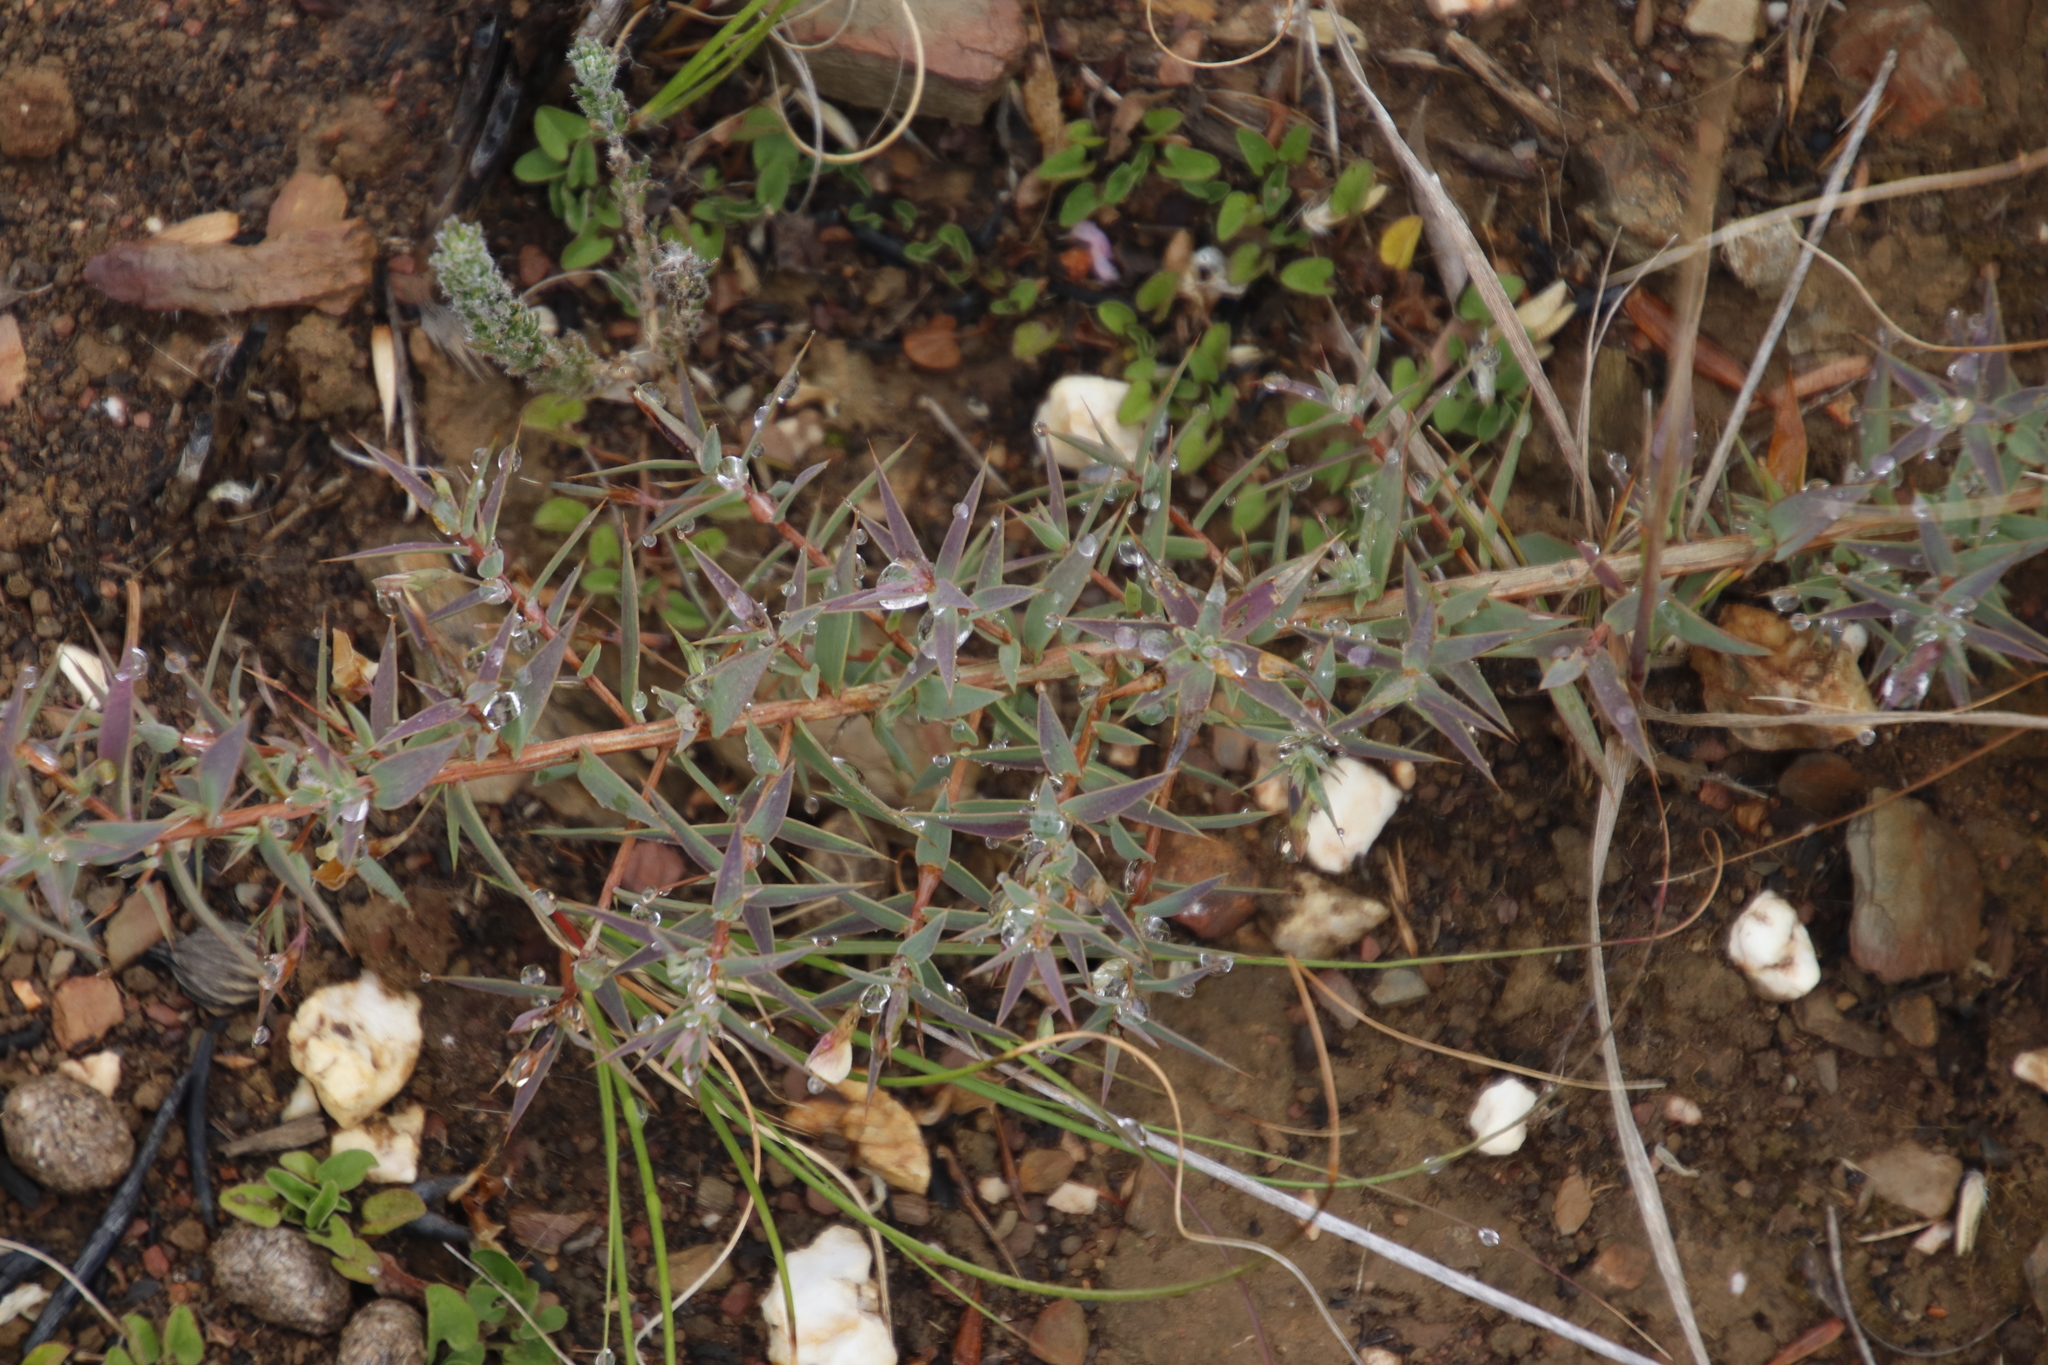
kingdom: Plantae
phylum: Tracheophyta
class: Magnoliopsida
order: Fabales
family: Fabaceae
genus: Aspalathus
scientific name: Aspalathus alpestris
